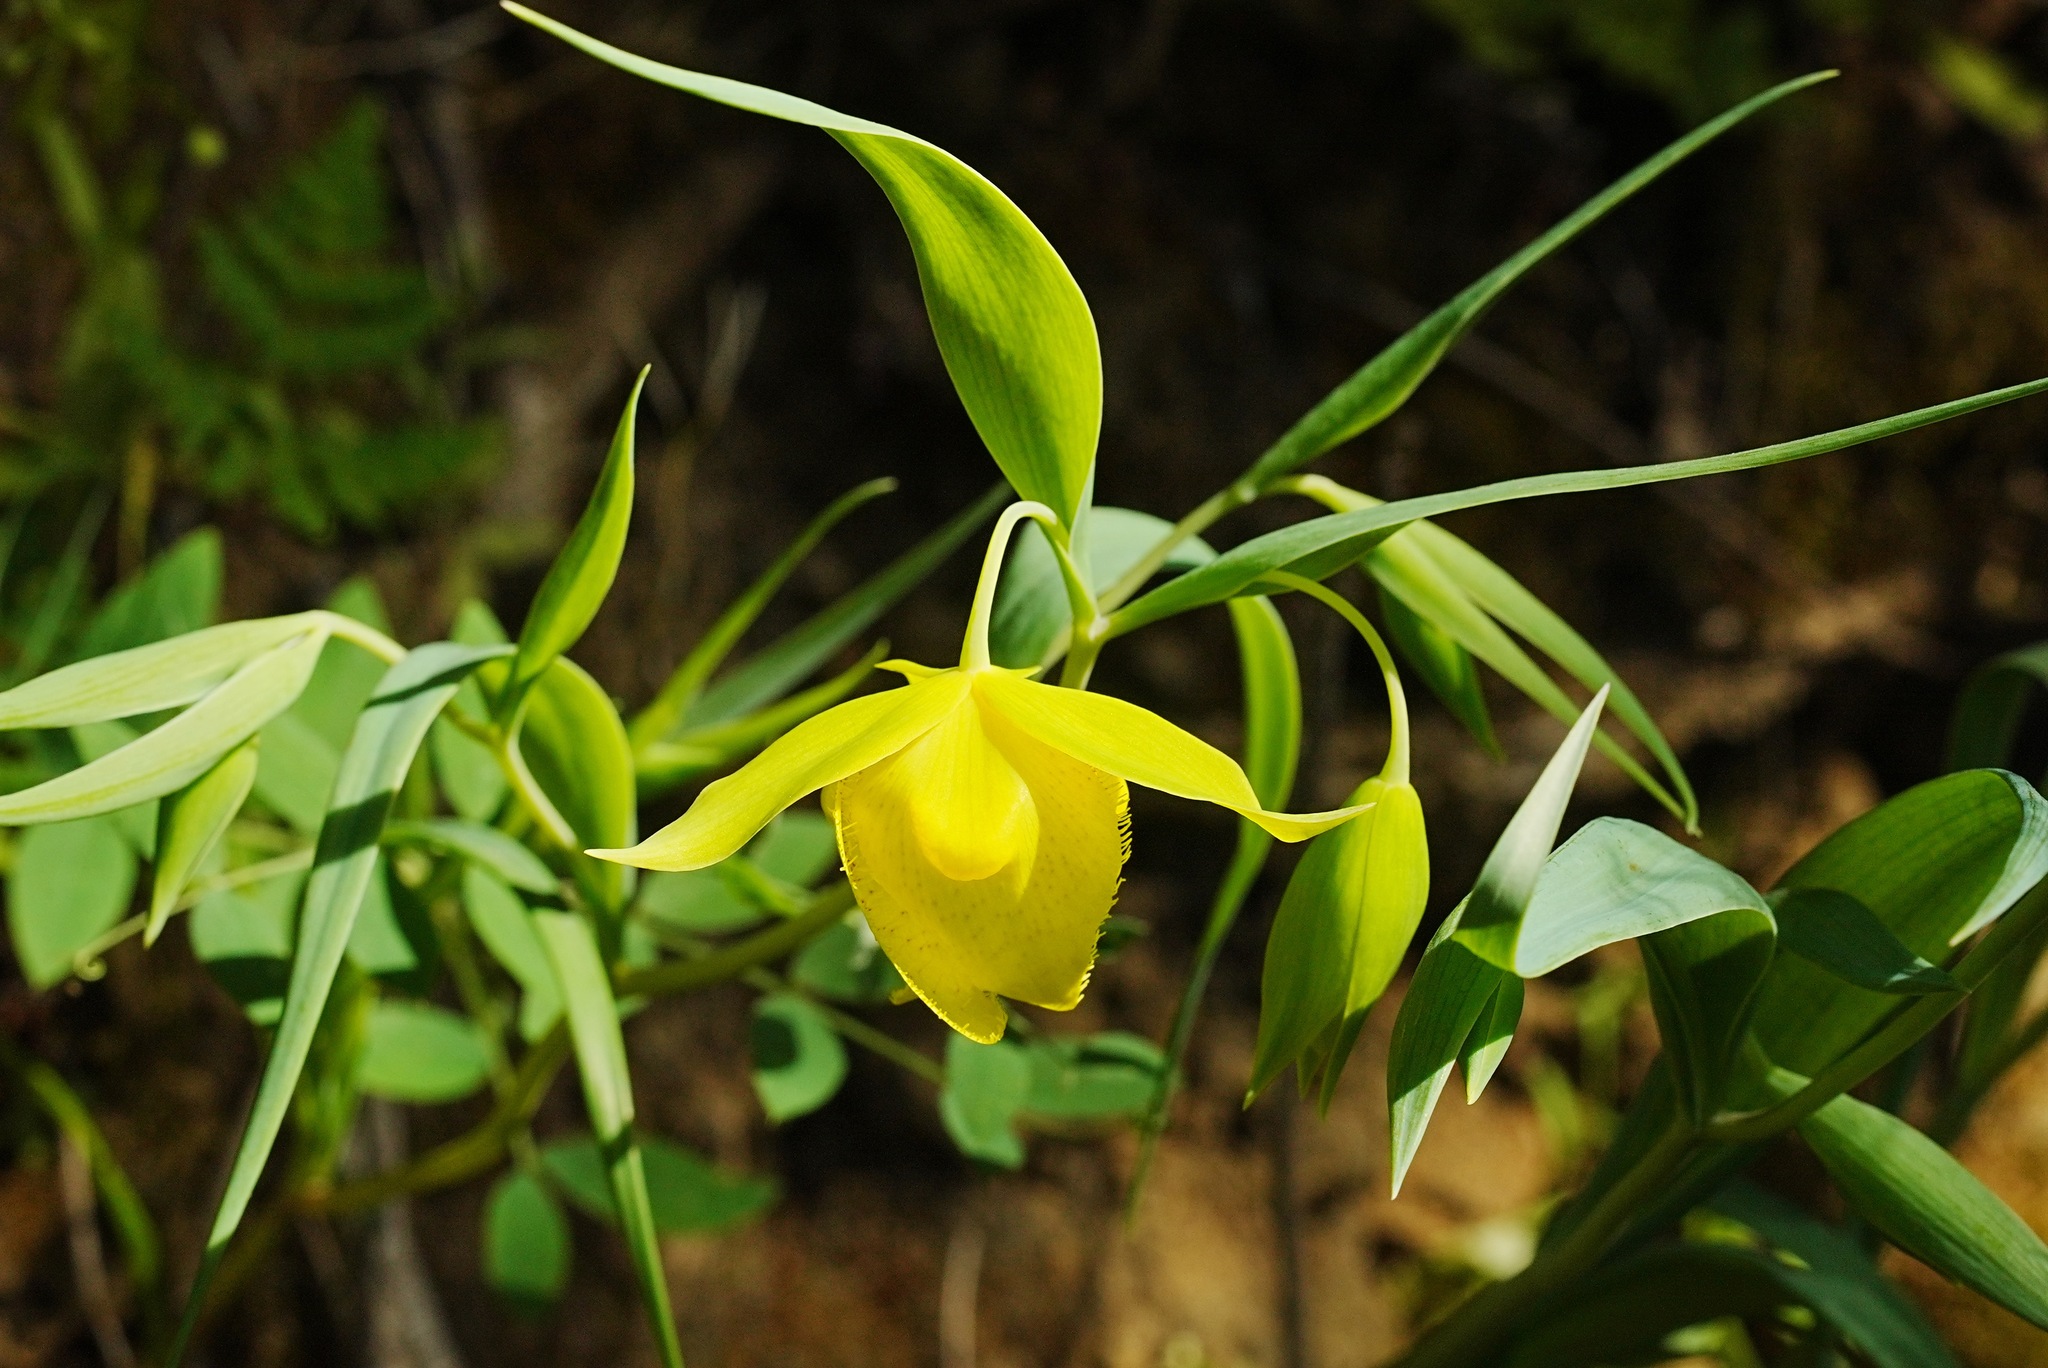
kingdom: Plantae
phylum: Tracheophyta
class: Liliopsida
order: Liliales
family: Liliaceae
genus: Calochortus
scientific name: Calochortus pulchellus
